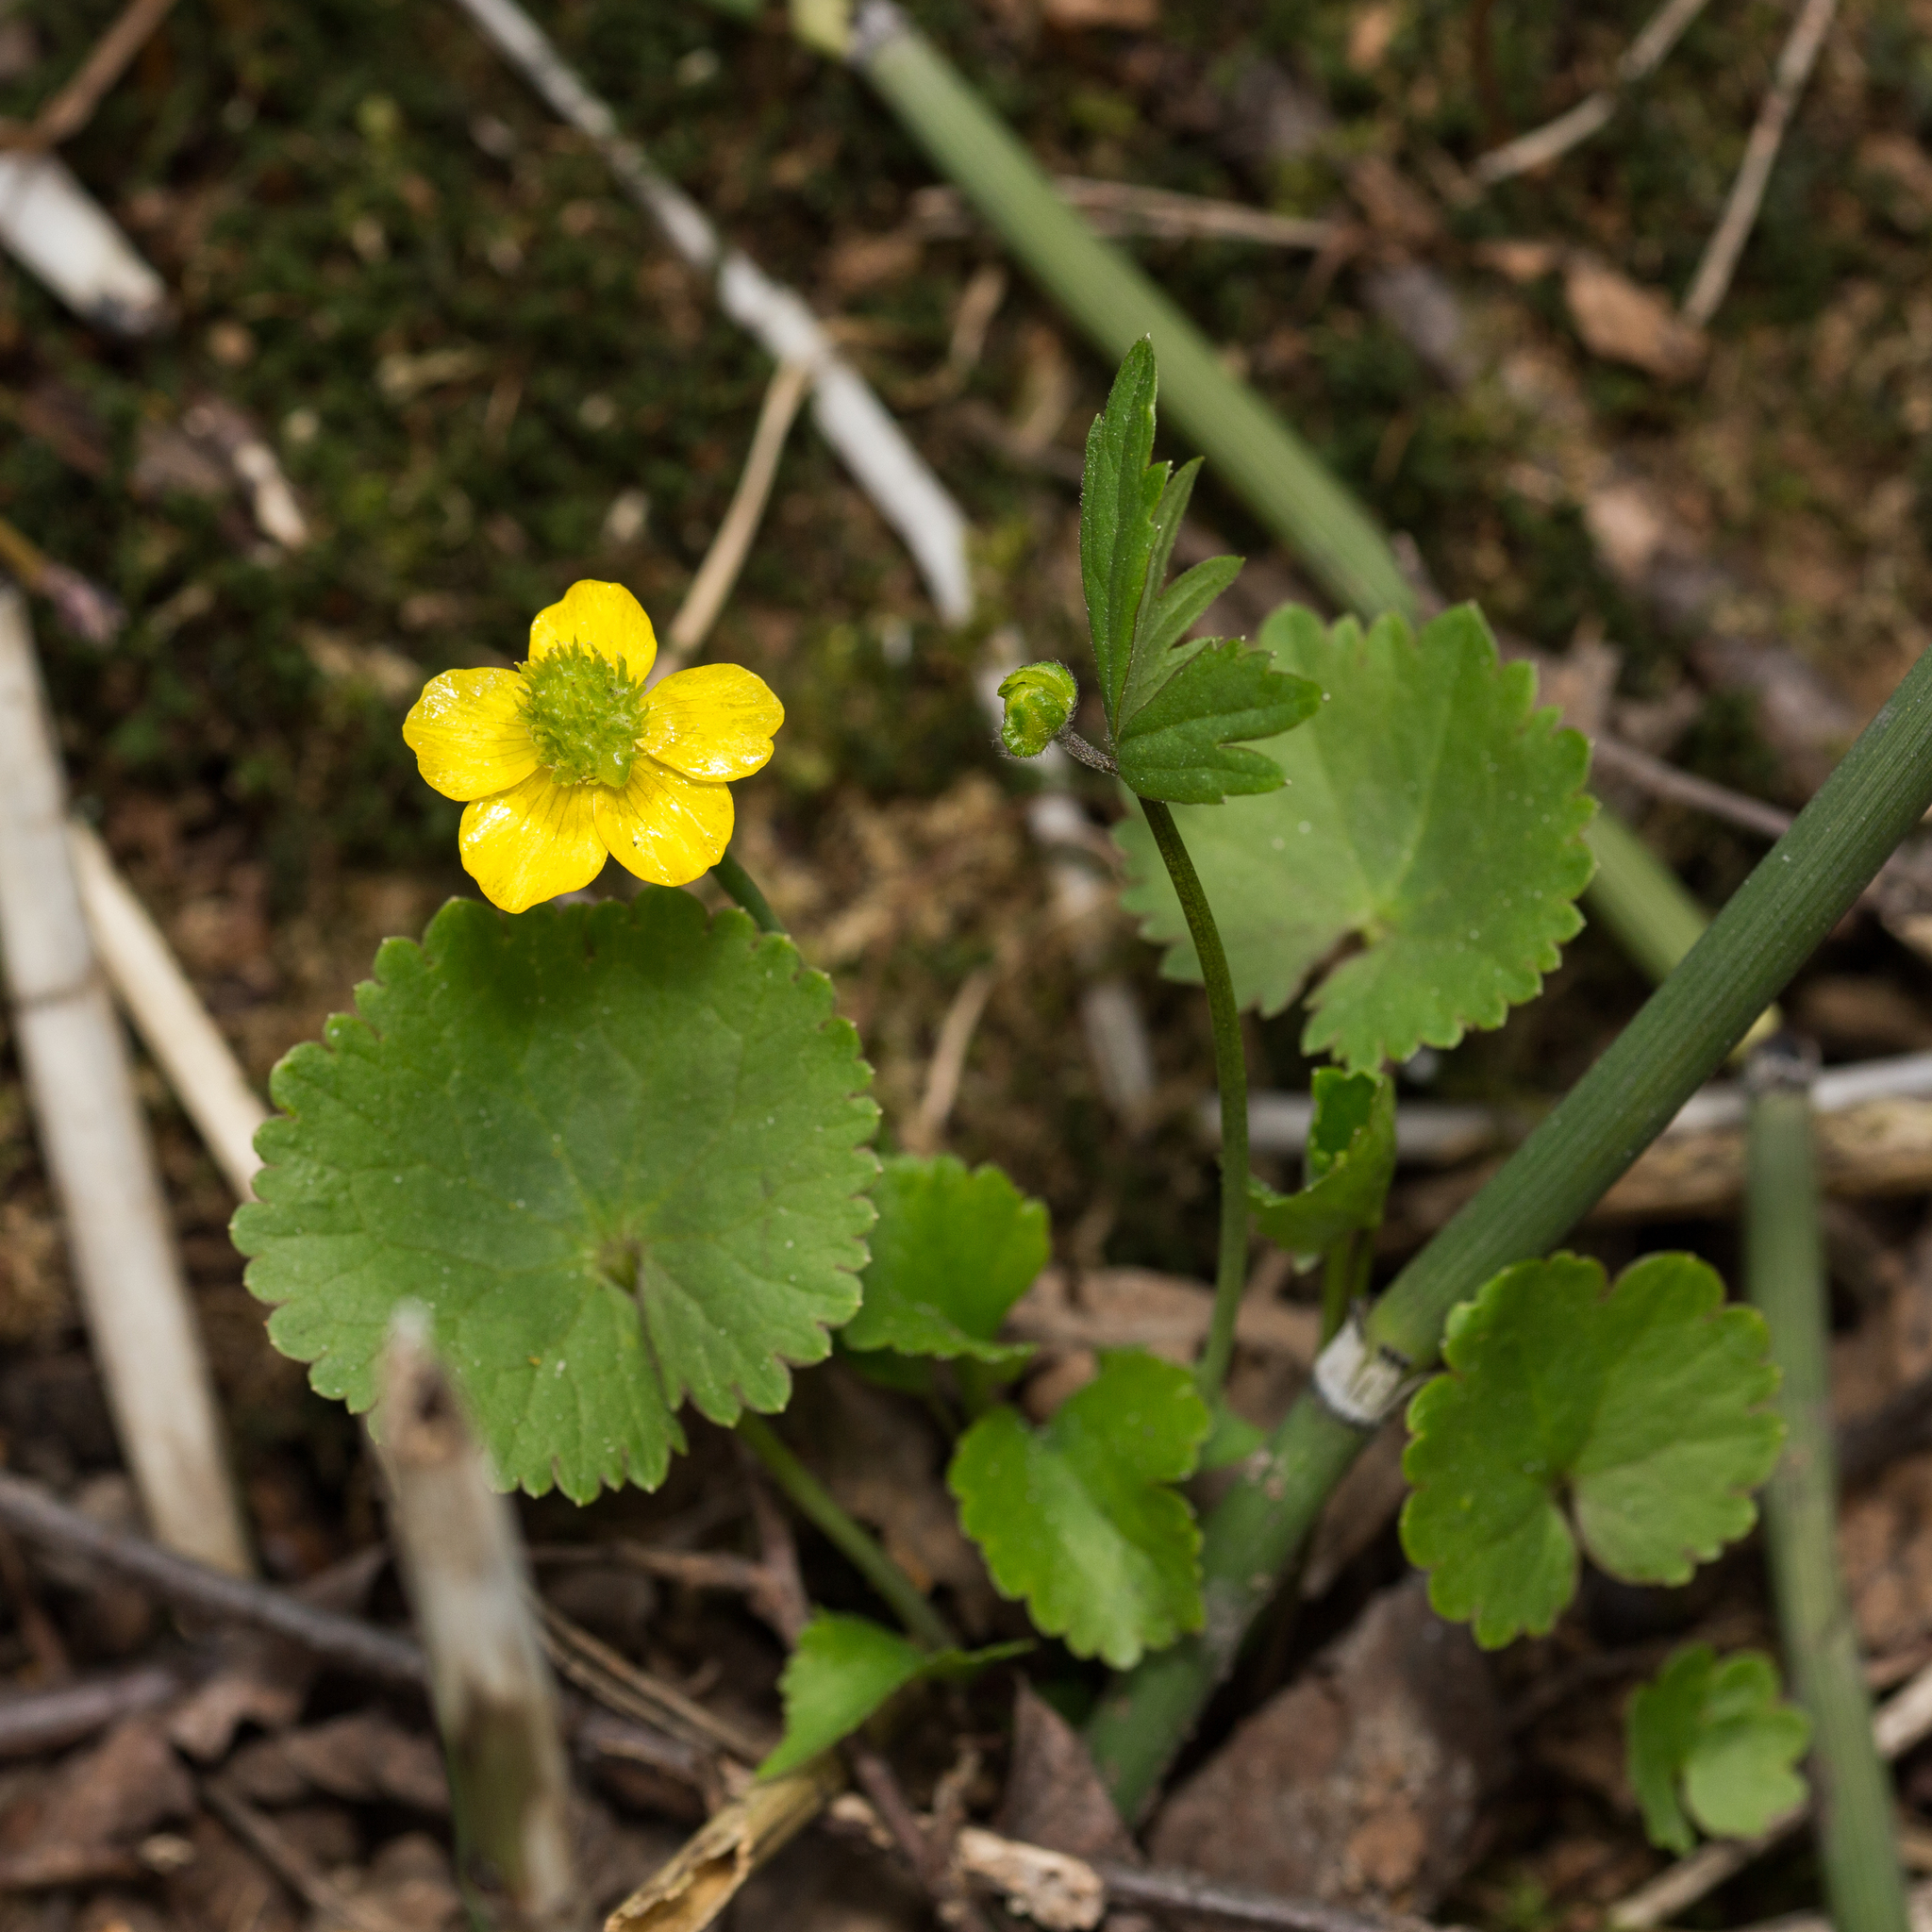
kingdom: Plantae
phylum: Tracheophyta
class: Magnoliopsida
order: Ranunculales
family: Ranunculaceae
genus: Ranunculus
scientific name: Ranunculus cassubicus
